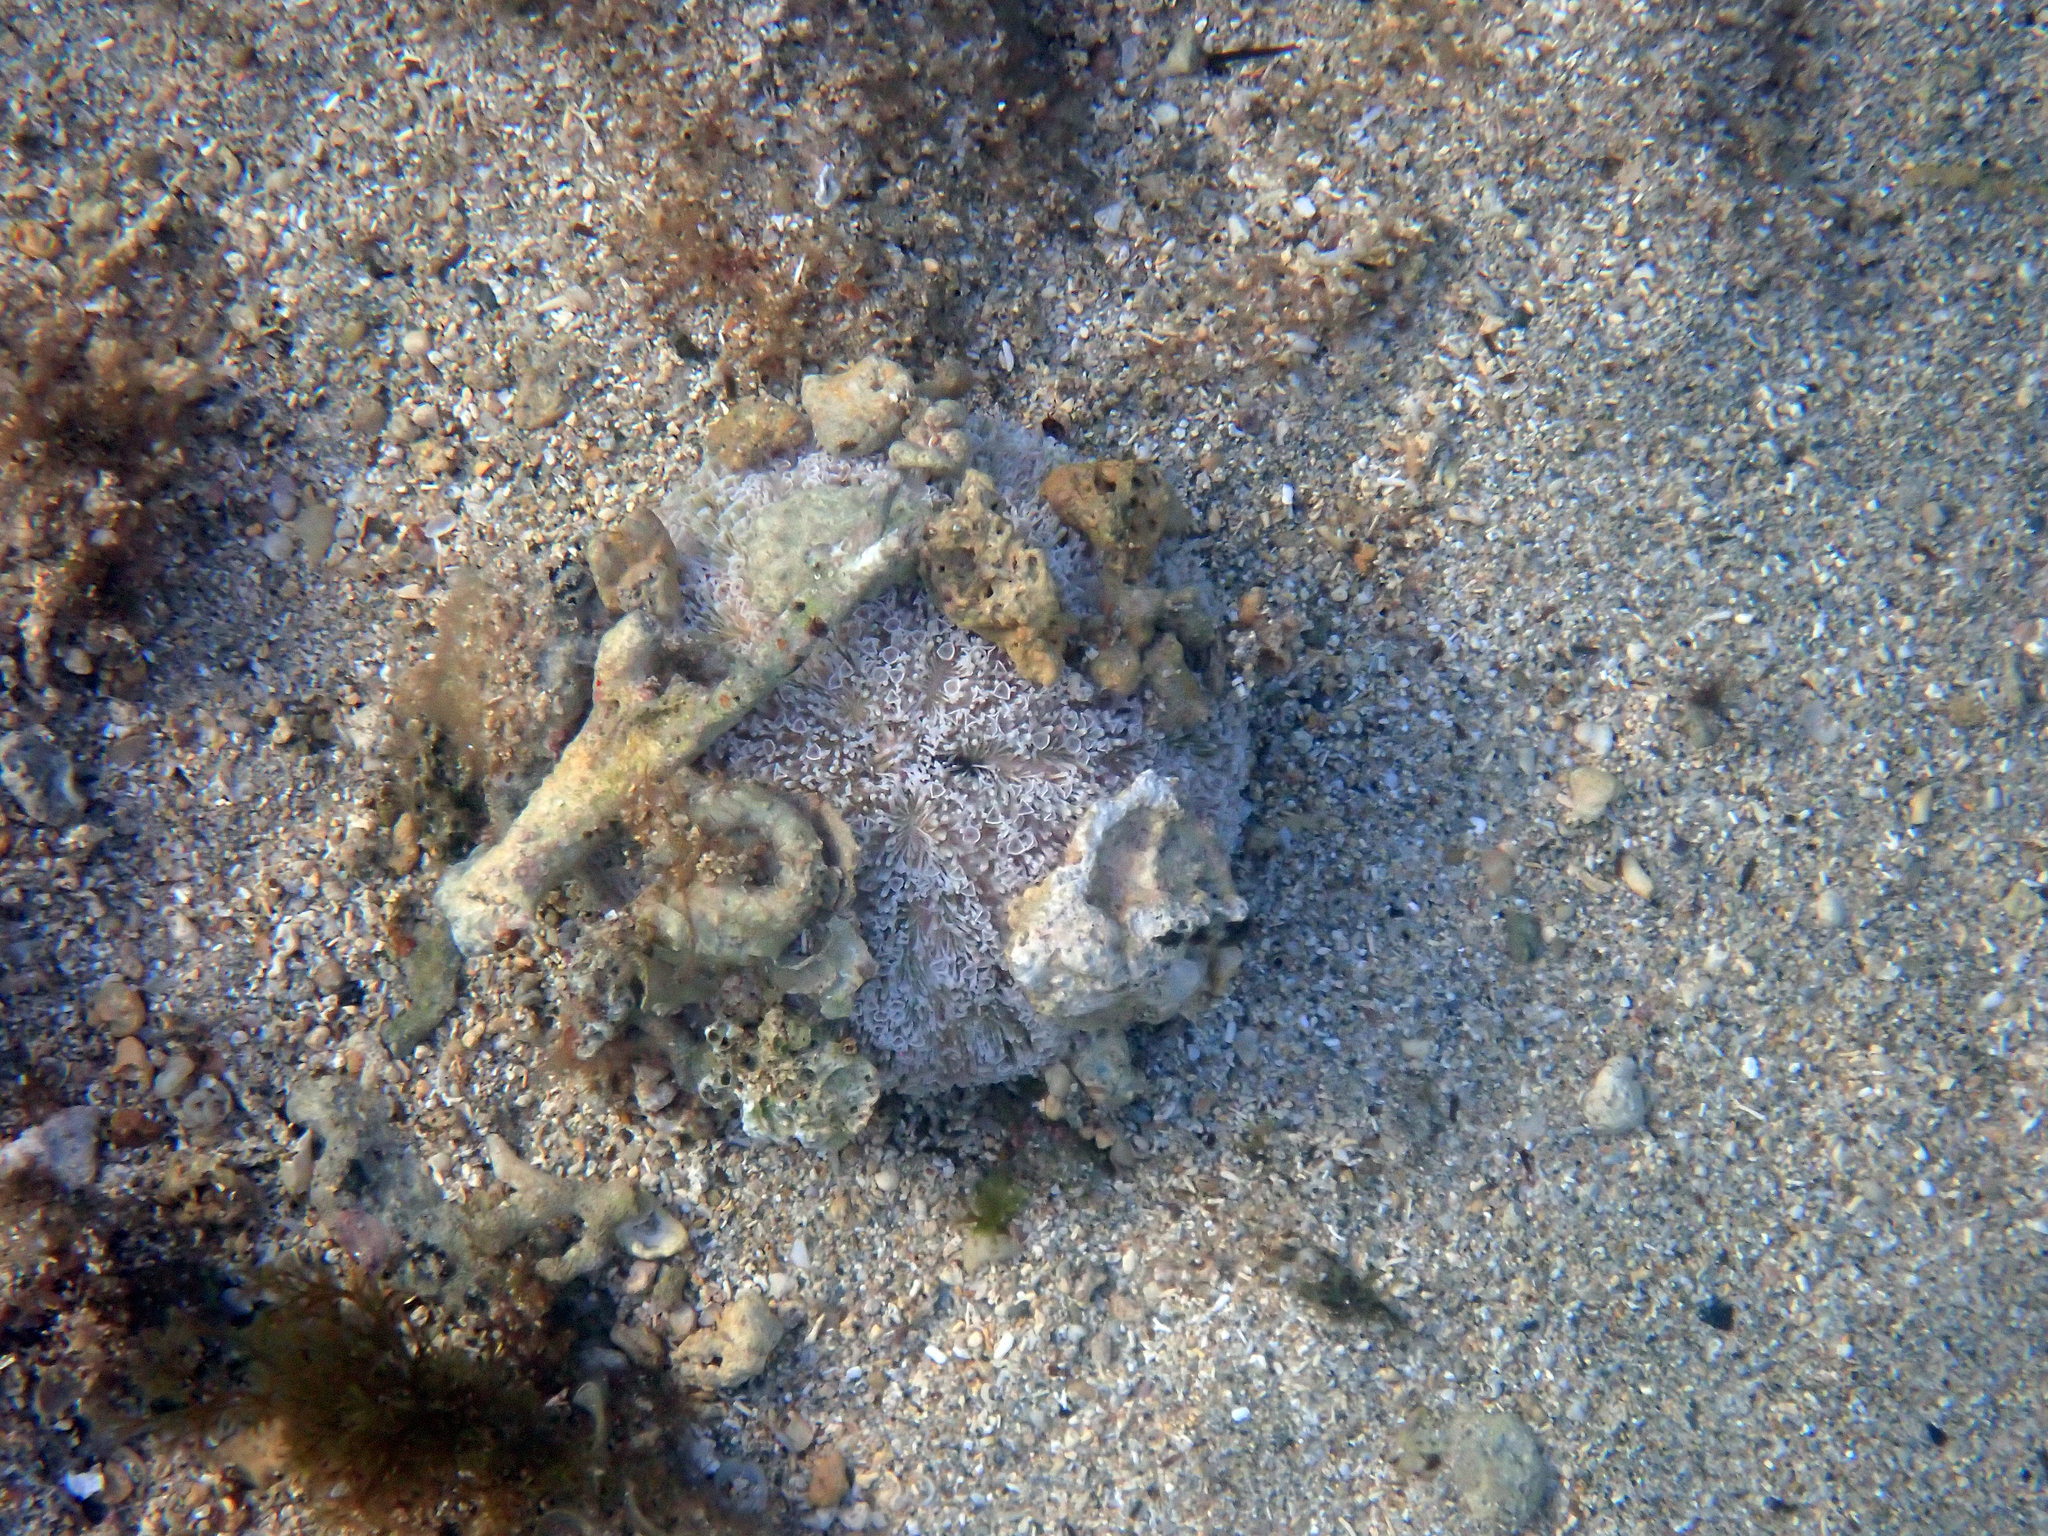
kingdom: Animalia
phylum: Echinodermata
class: Echinoidea
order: Camarodonta
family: Toxopneustidae
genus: Toxopneustes
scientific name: Toxopneustes pileolus
